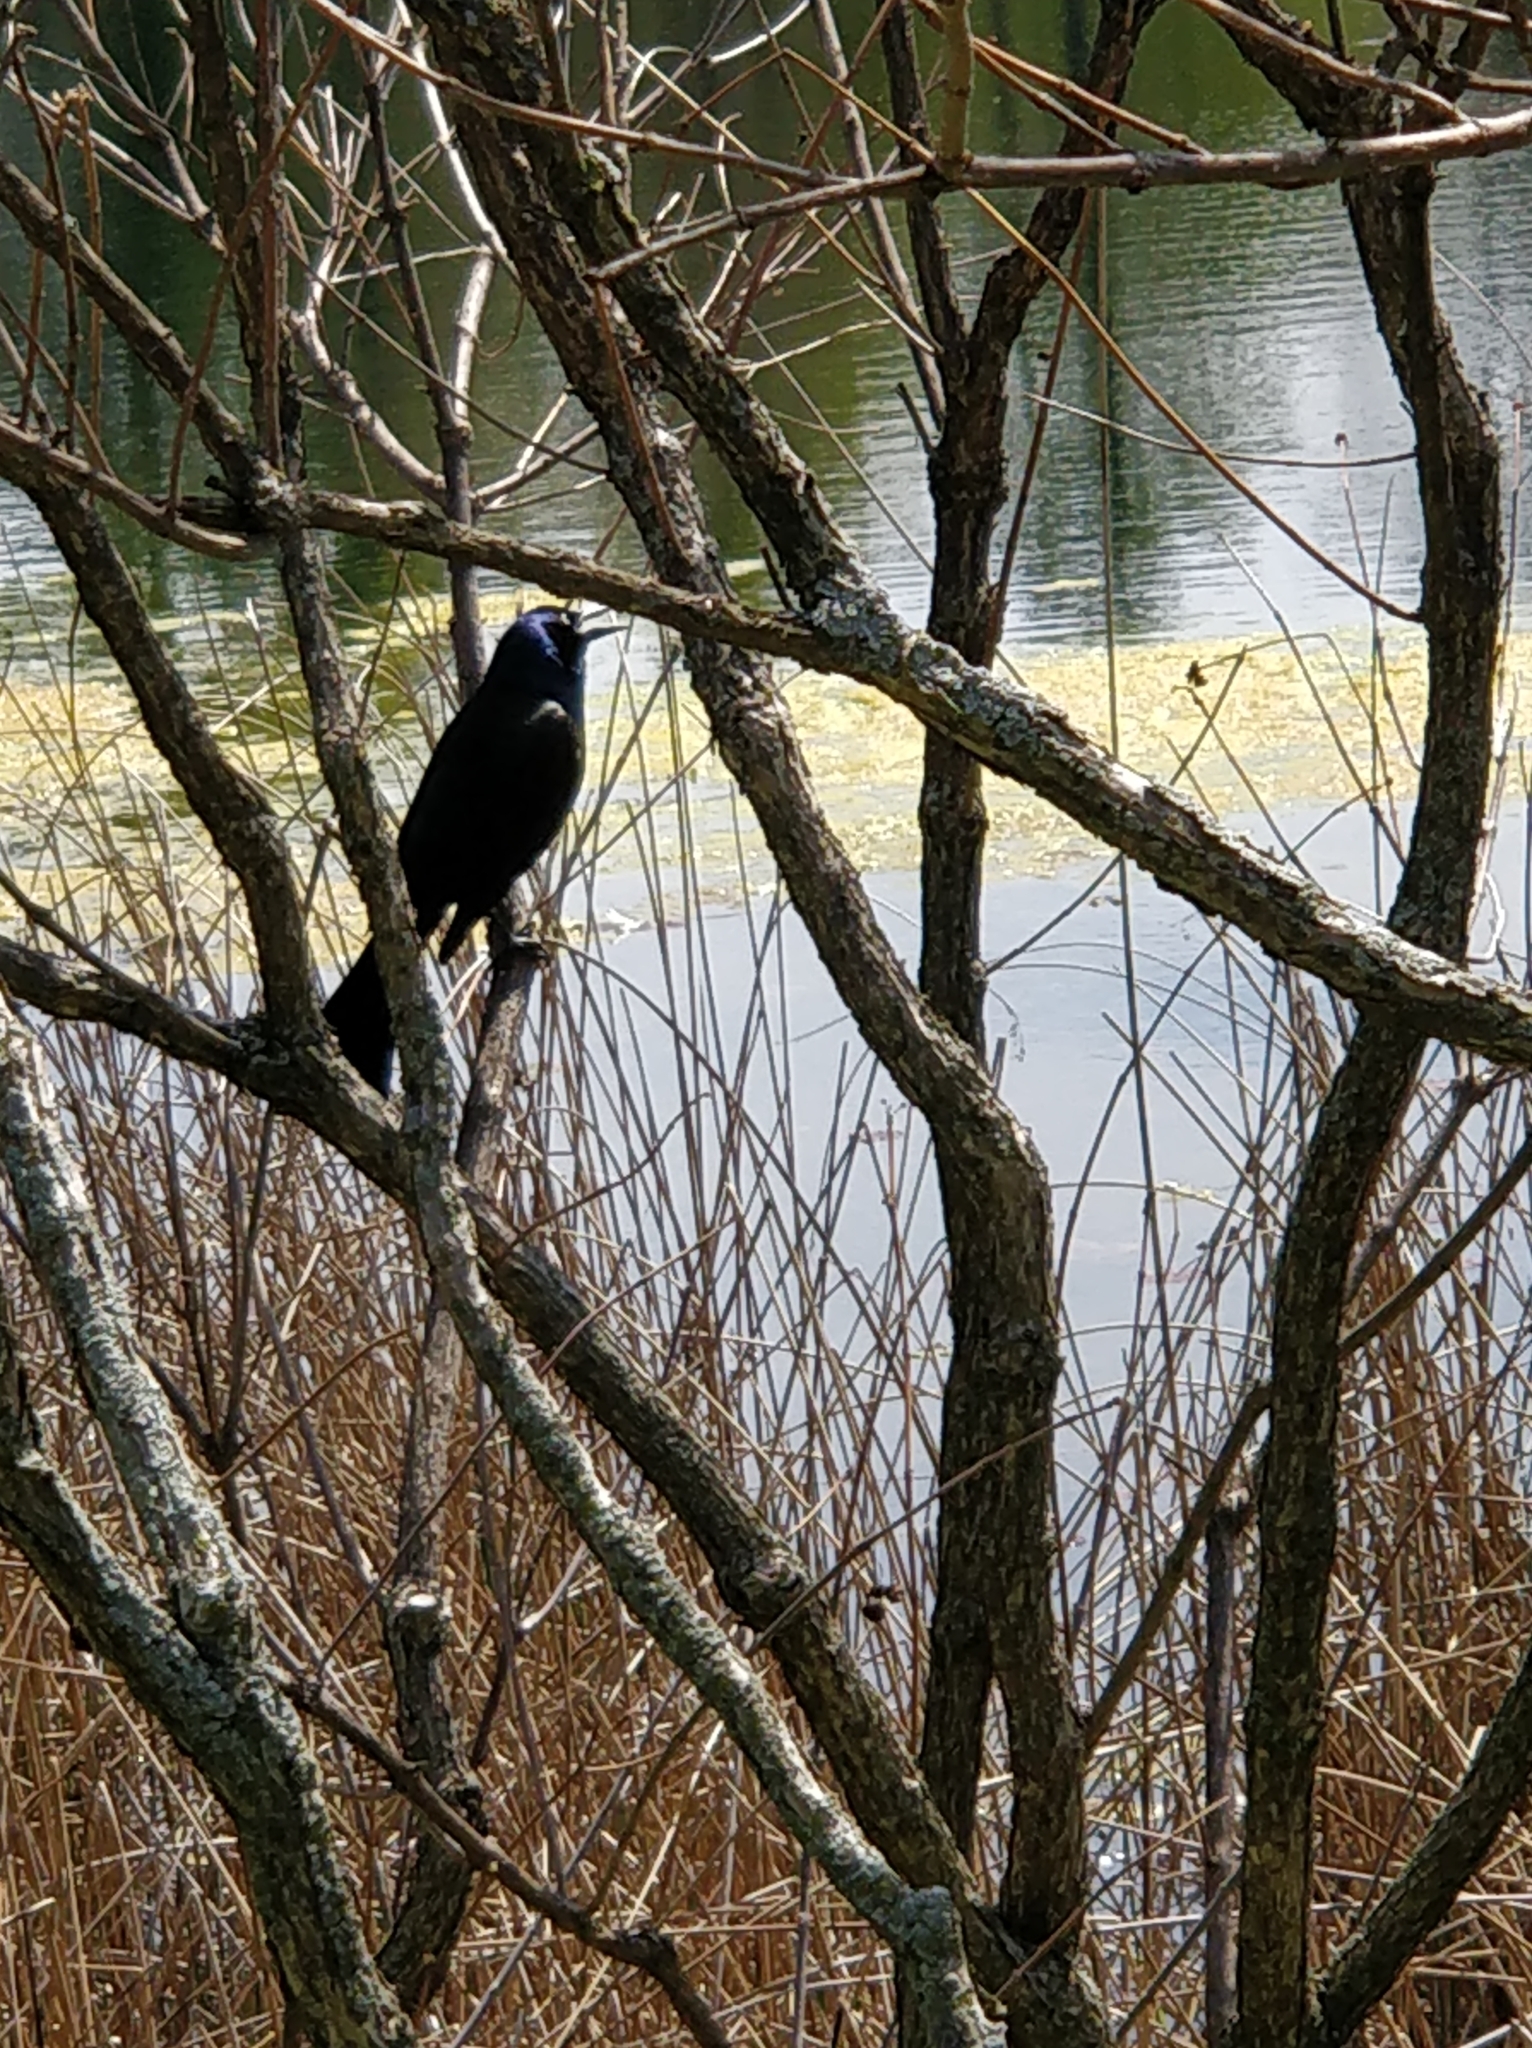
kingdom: Animalia
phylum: Chordata
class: Aves
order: Passeriformes
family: Icteridae
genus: Quiscalus
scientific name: Quiscalus quiscula
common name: Common grackle
